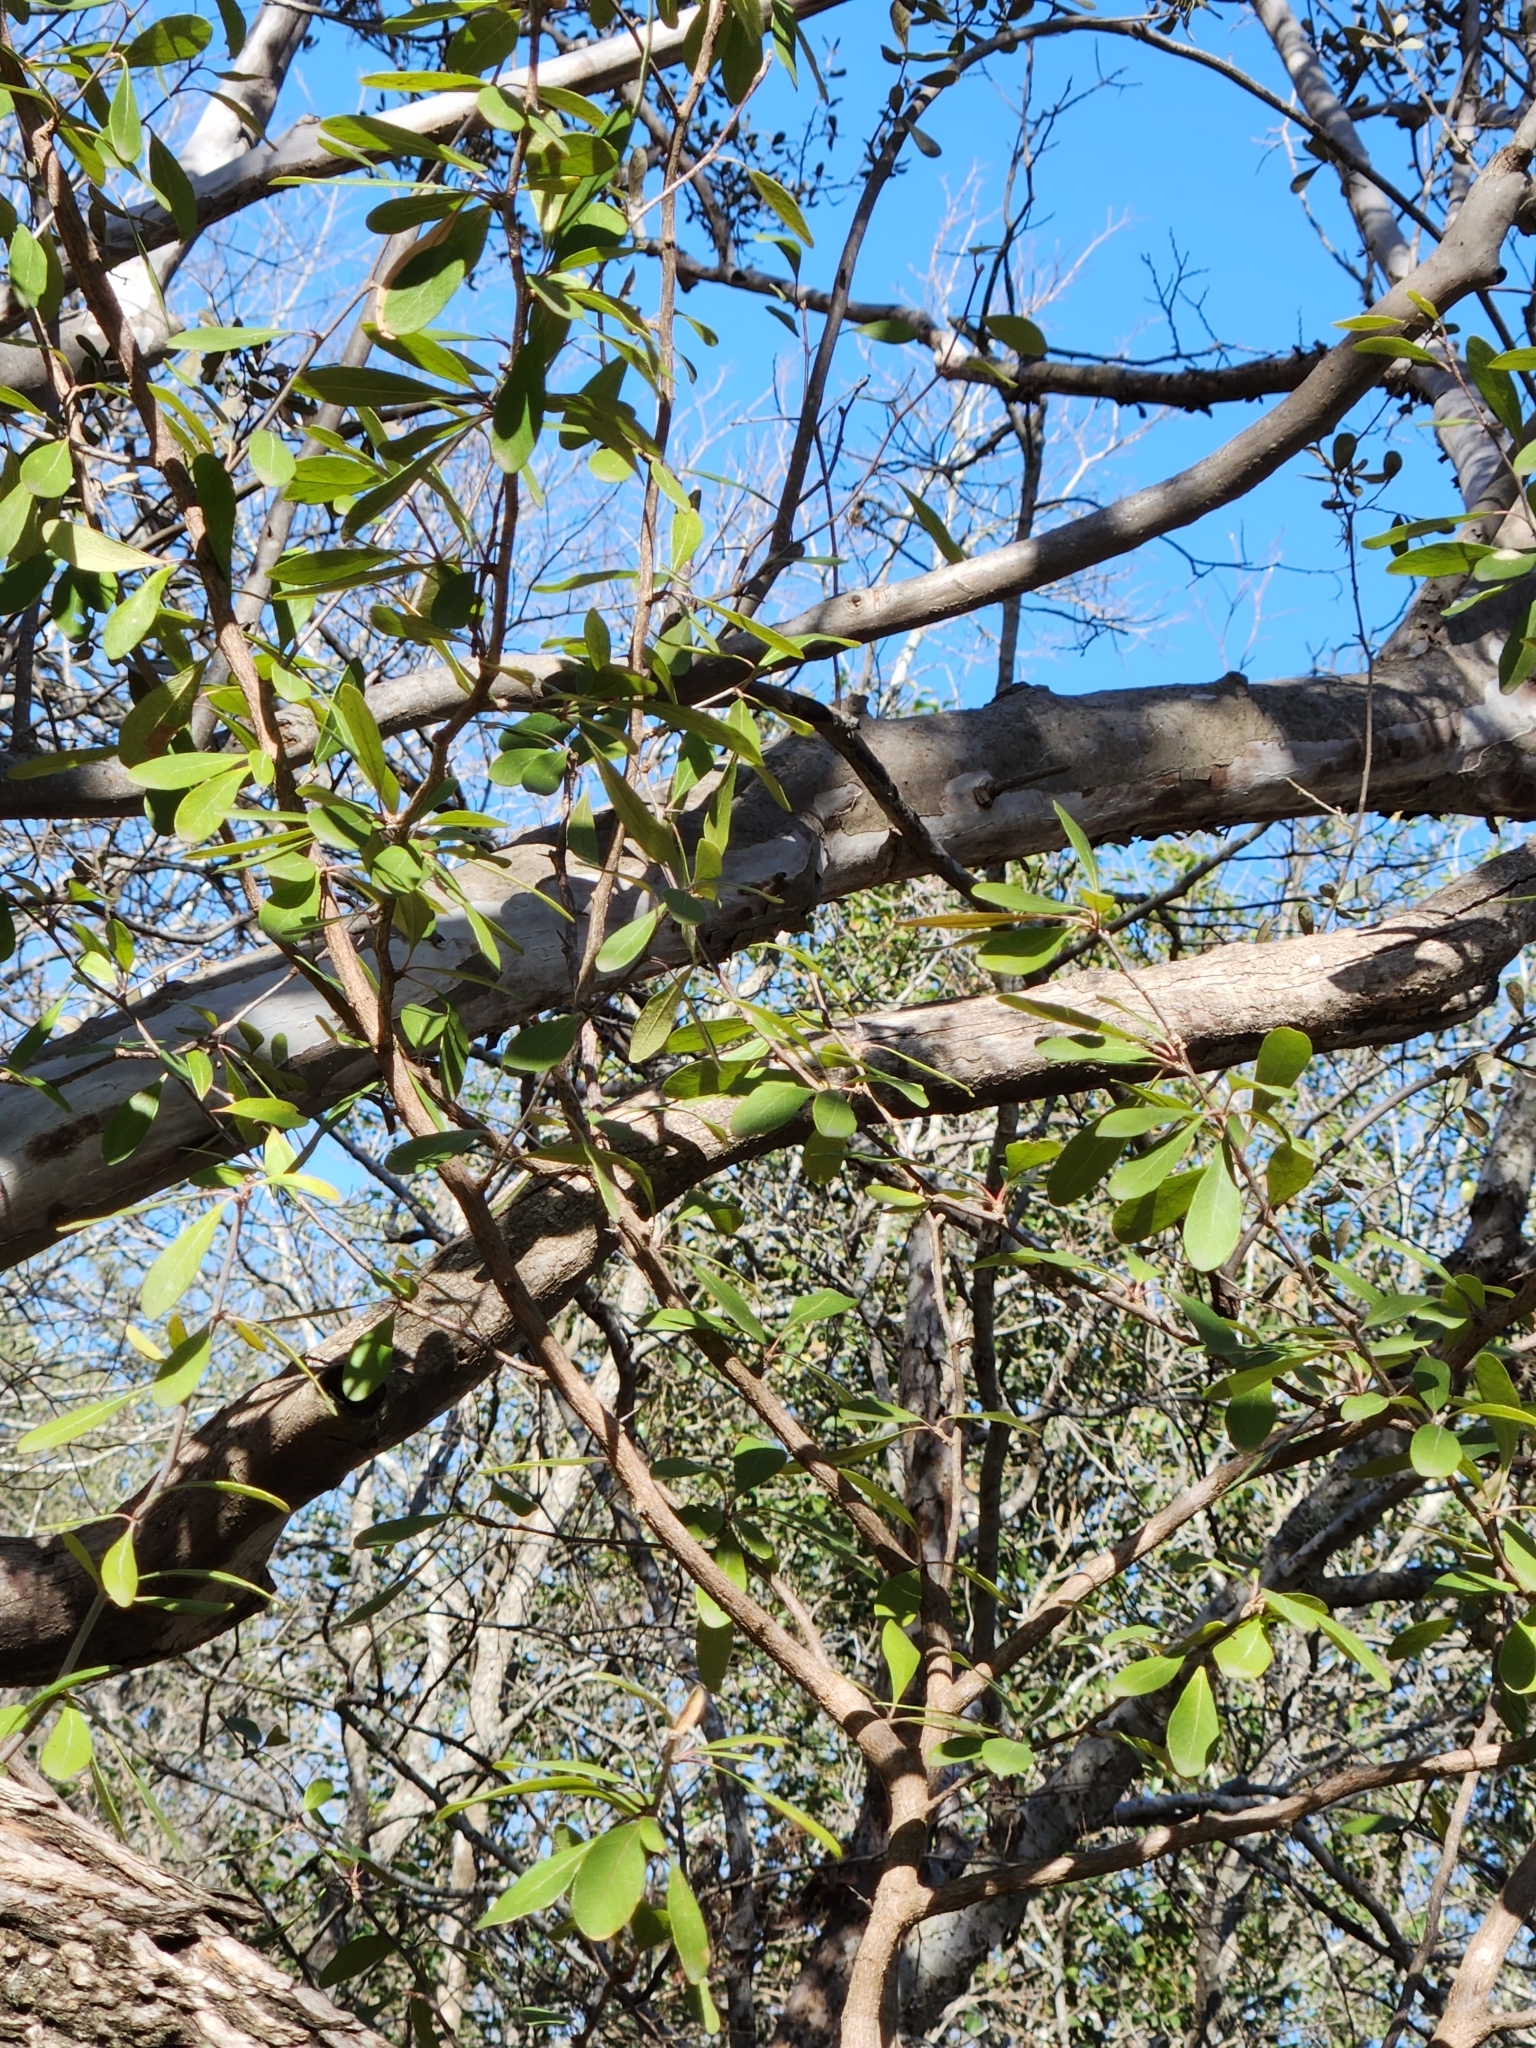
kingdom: Plantae
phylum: Tracheophyta
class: Magnoliopsida
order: Ericales
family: Sapotaceae
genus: Sideroxylon
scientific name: Sideroxylon lanuginosum
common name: Chittamwood
